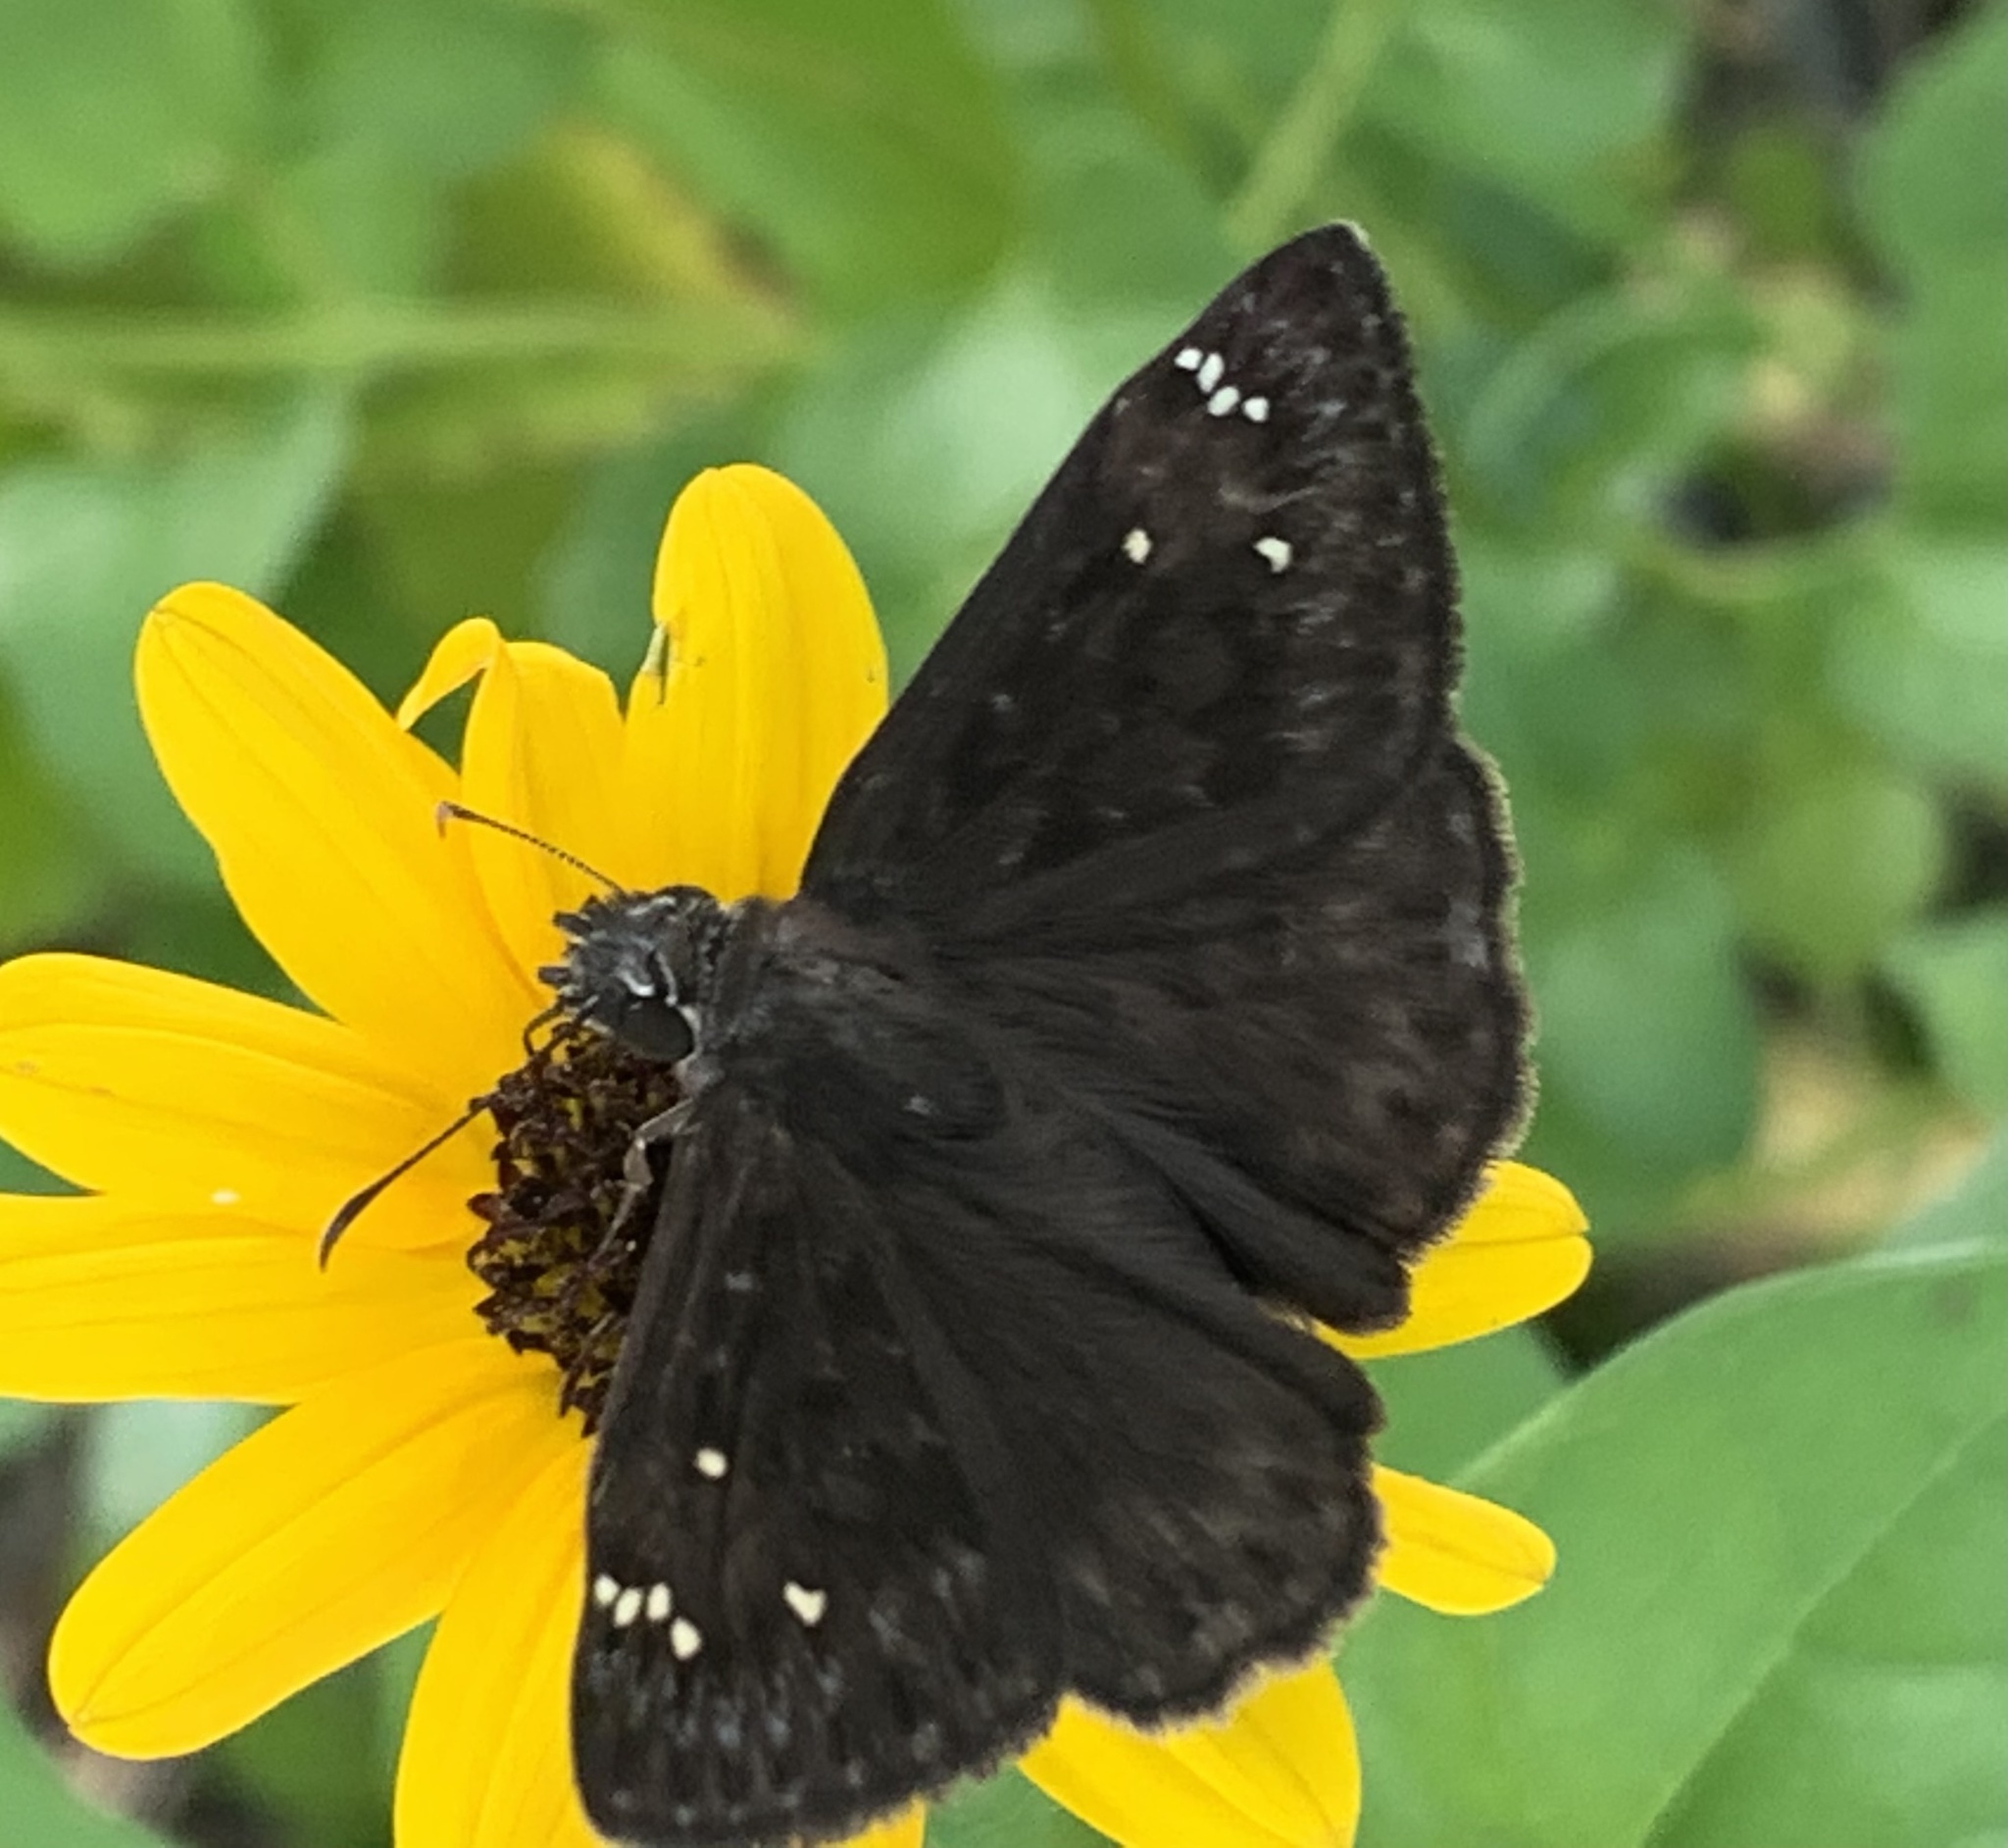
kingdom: Animalia
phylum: Arthropoda
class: Insecta
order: Lepidoptera
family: Hesperiidae
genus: Erynnis
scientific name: Erynnis horatius
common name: Horace's duskywing
